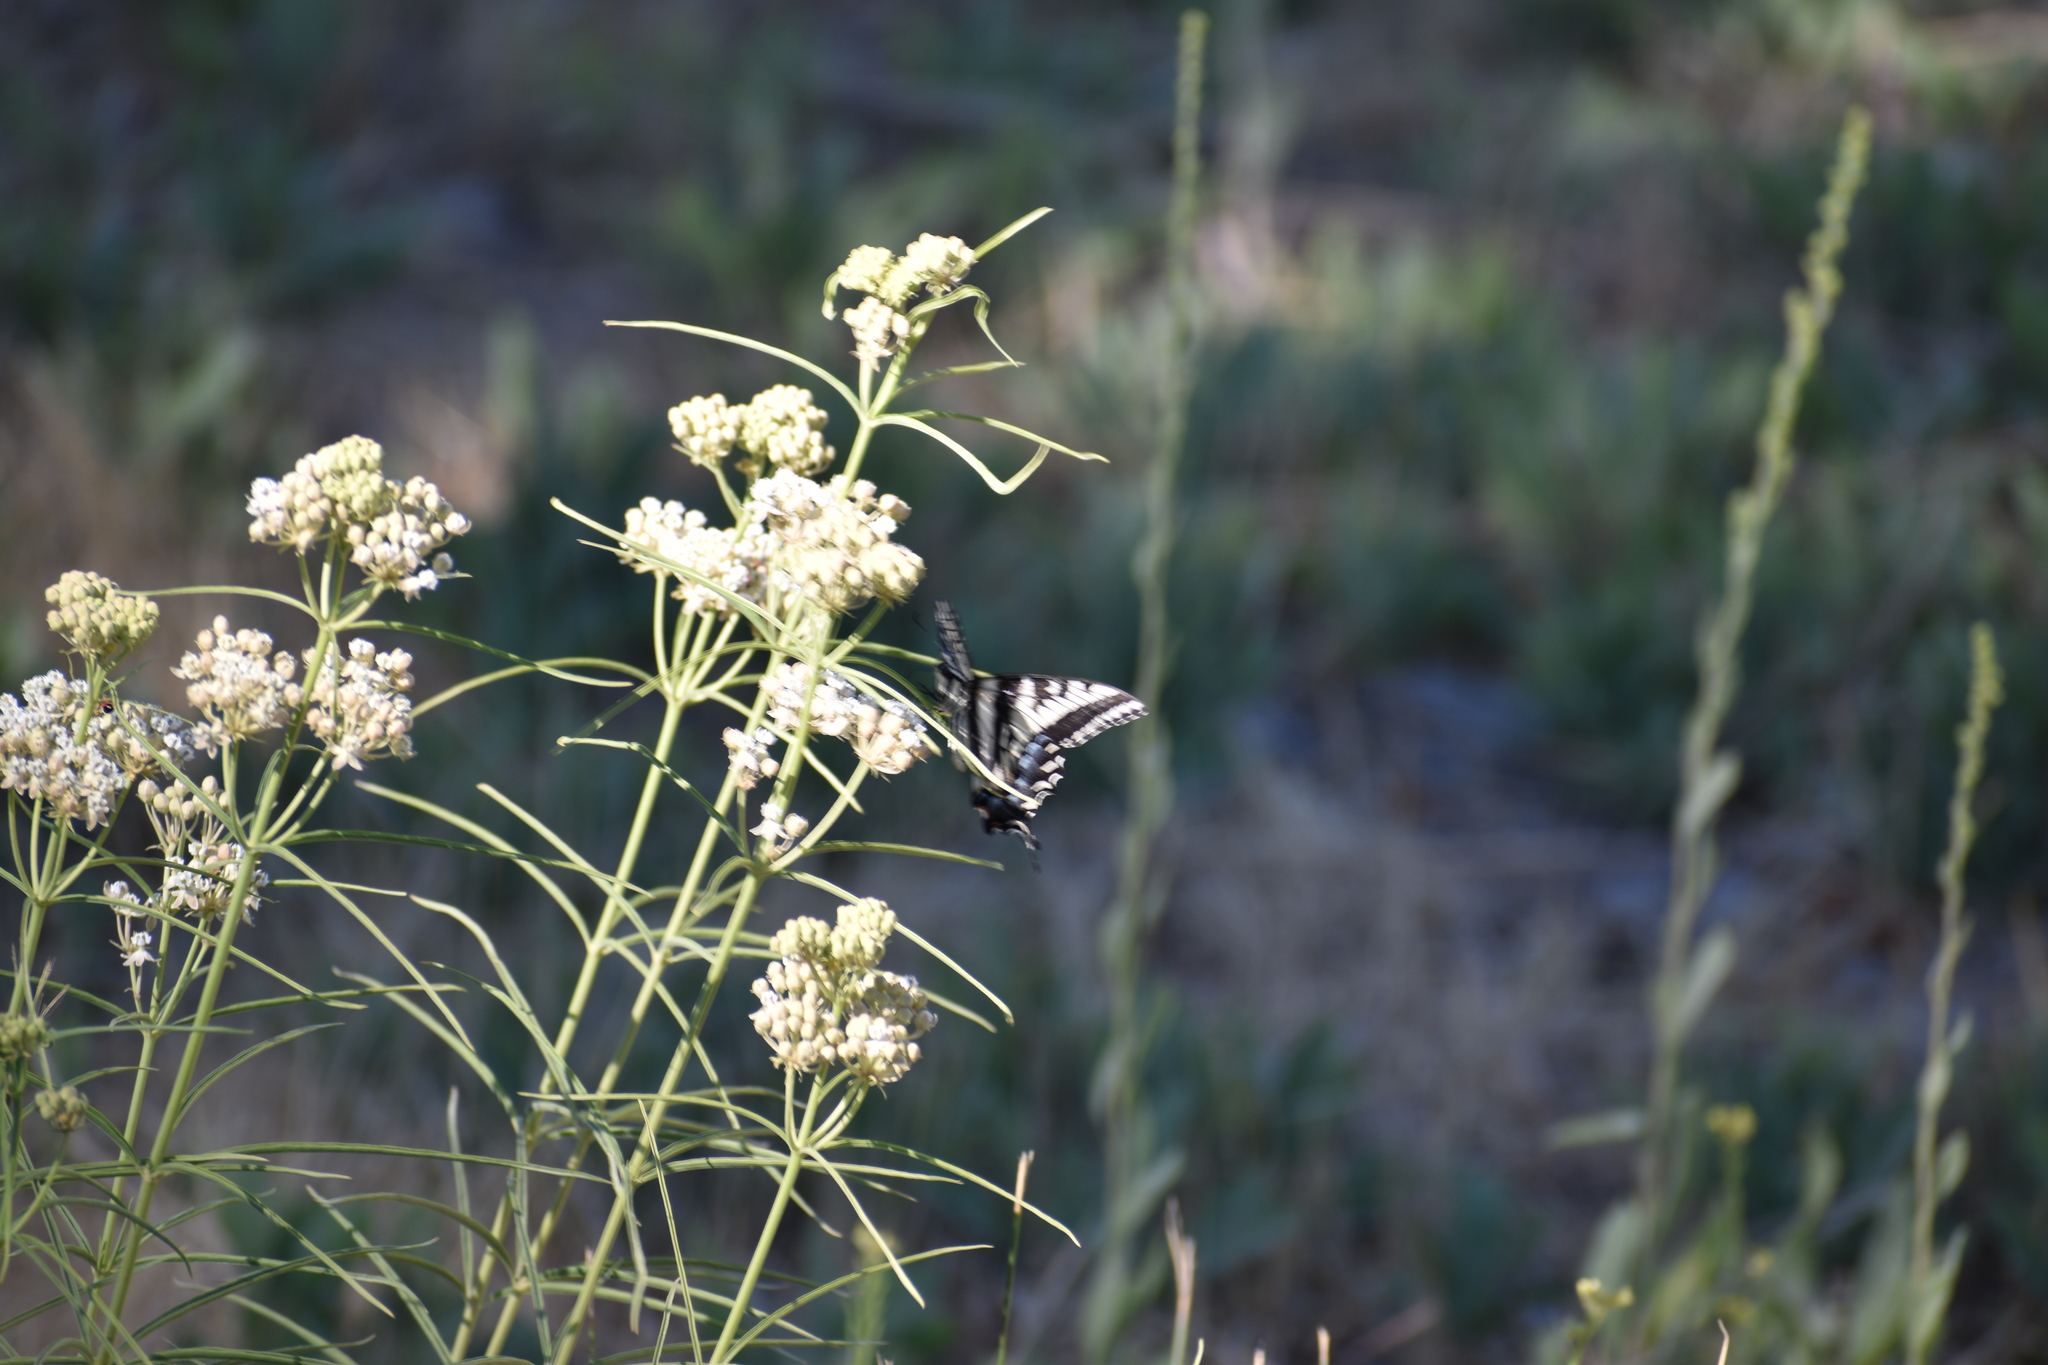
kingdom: Plantae
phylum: Tracheophyta
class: Magnoliopsida
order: Gentianales
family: Apocynaceae
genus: Asclepias
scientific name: Asclepias fascicularis
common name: Mexican milkweed
